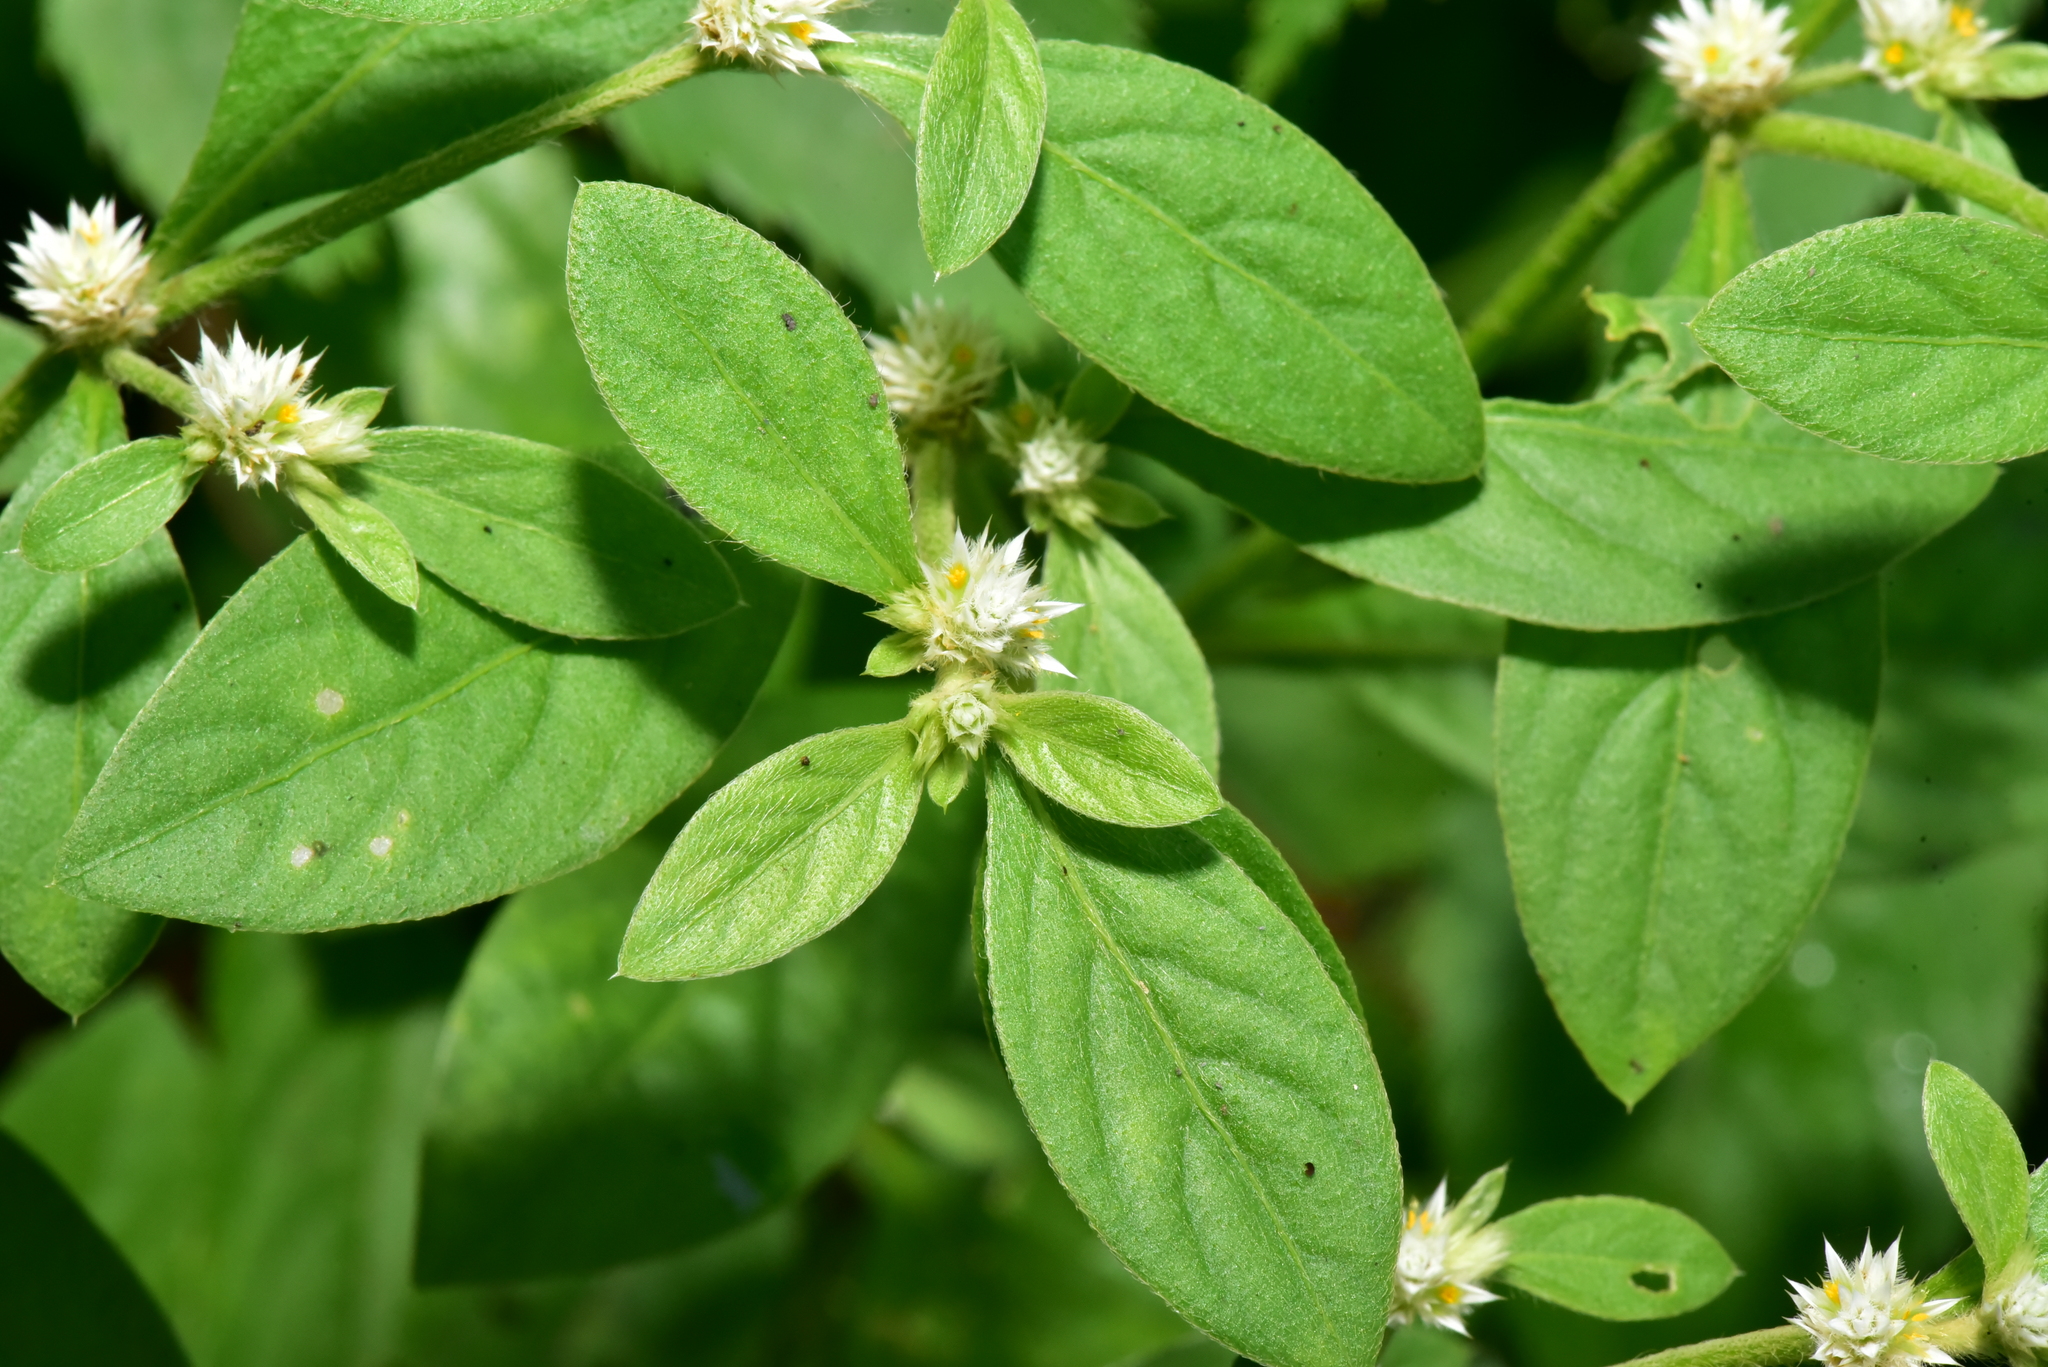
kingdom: Plantae
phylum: Tracheophyta
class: Magnoliopsida
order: Caryophyllales
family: Amaranthaceae
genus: Alternanthera
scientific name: Alternanthera ficoidea
